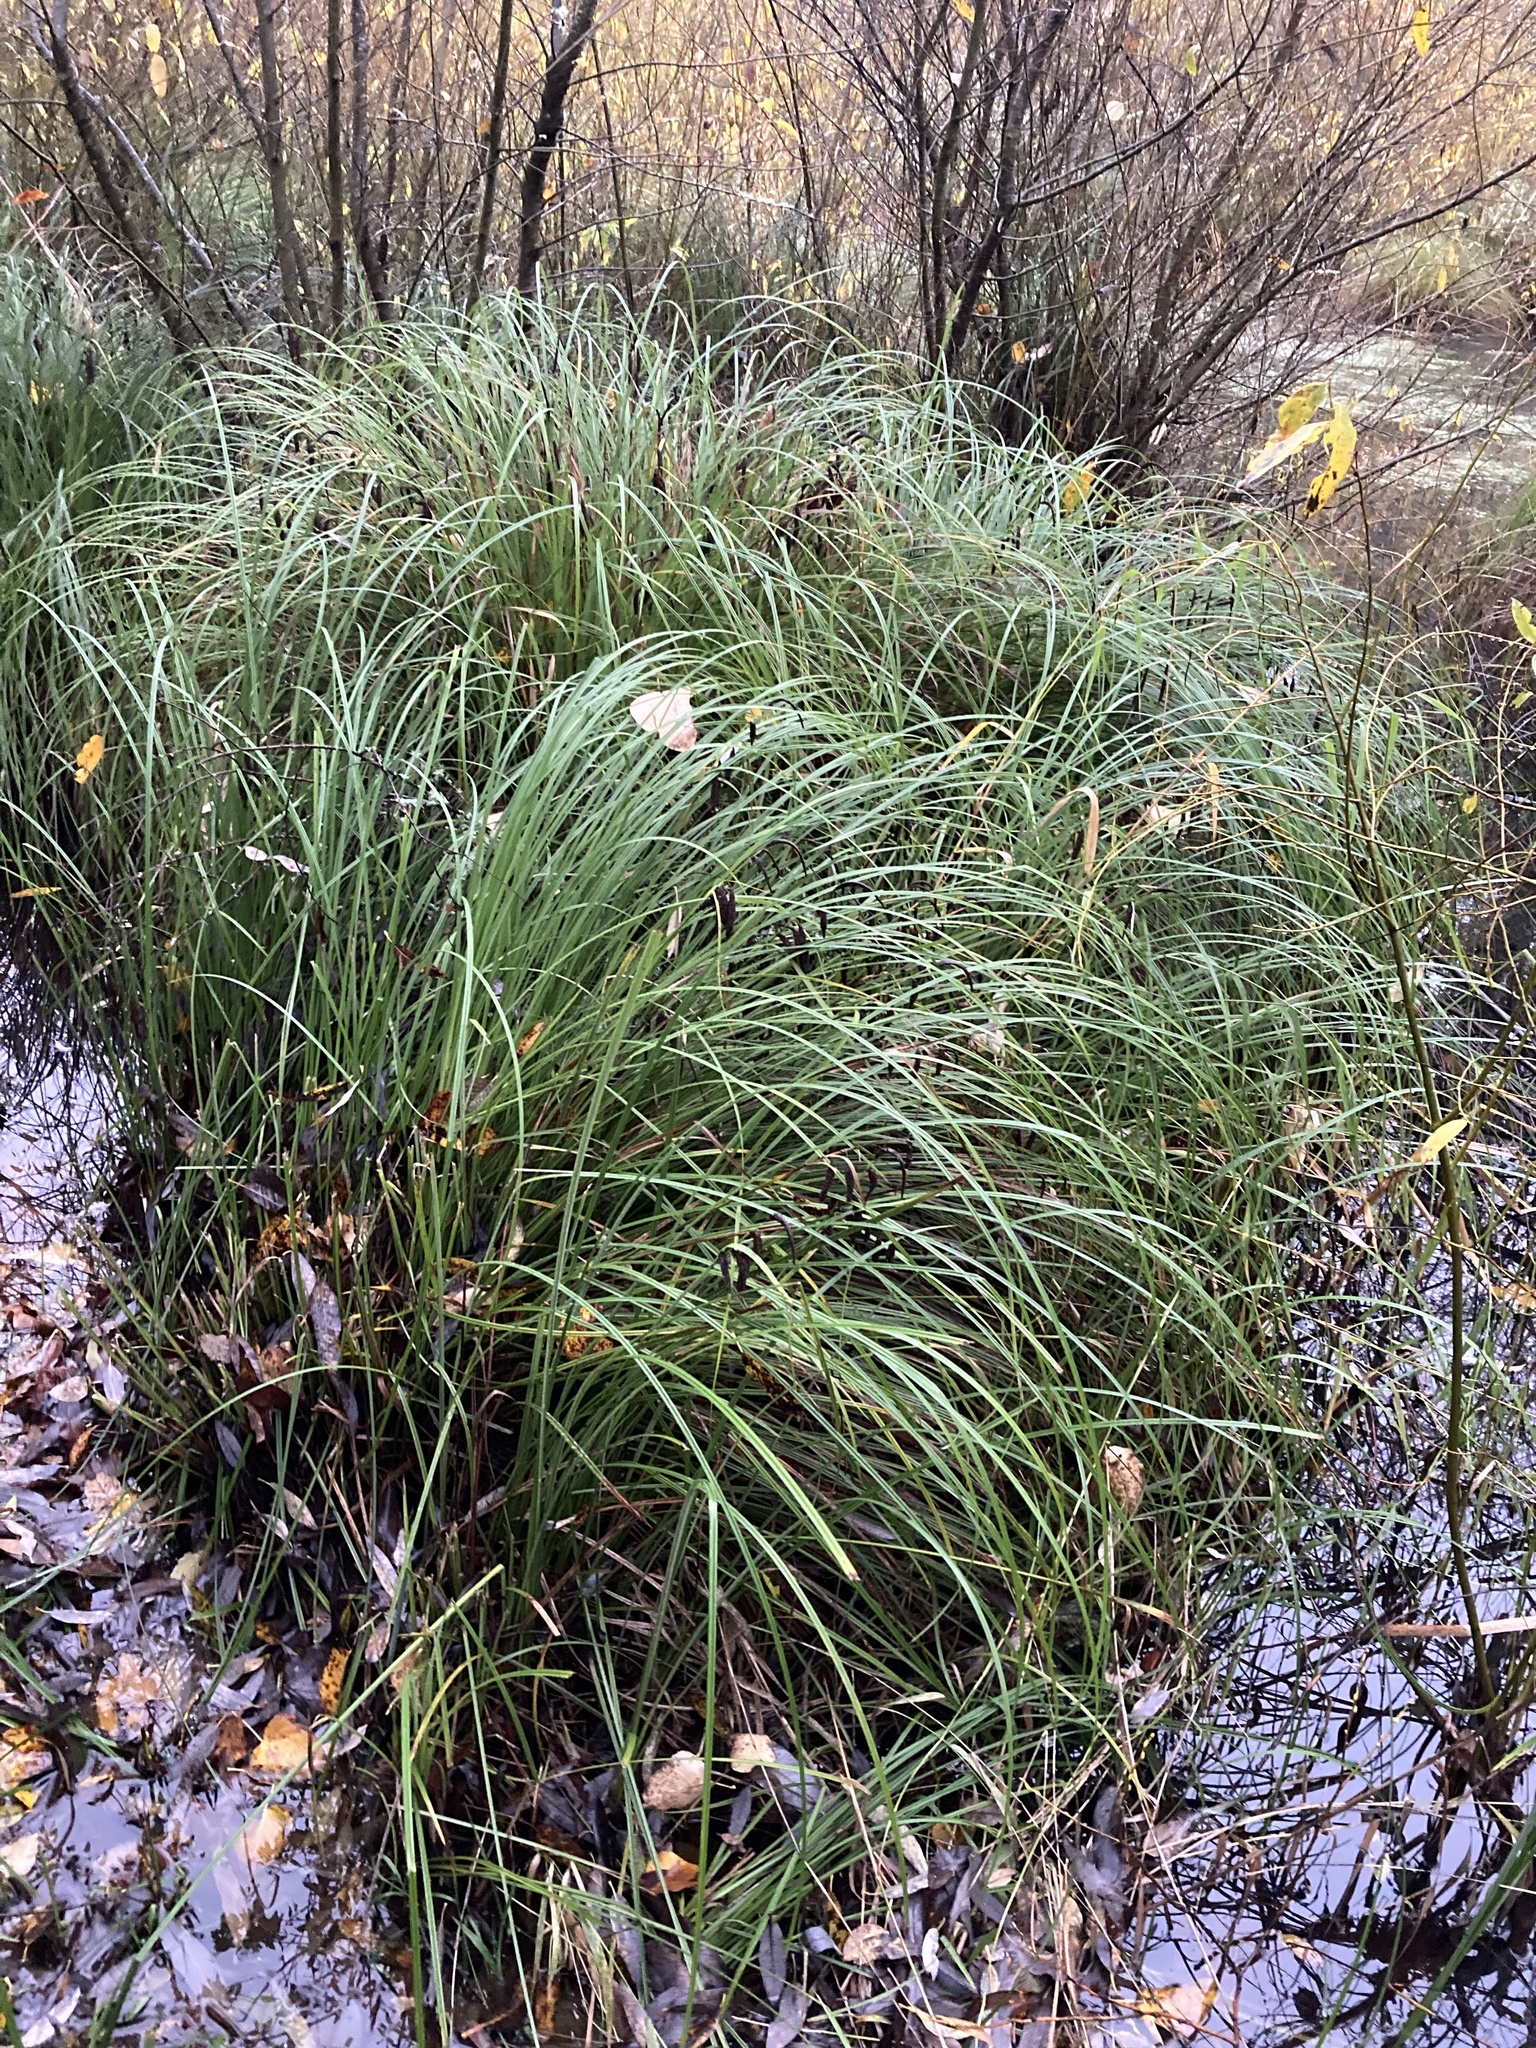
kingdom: Plantae
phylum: Tracheophyta
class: Liliopsida
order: Poales
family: Cyperaceae
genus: Carex
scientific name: Carex obnupta
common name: Slough sedge
